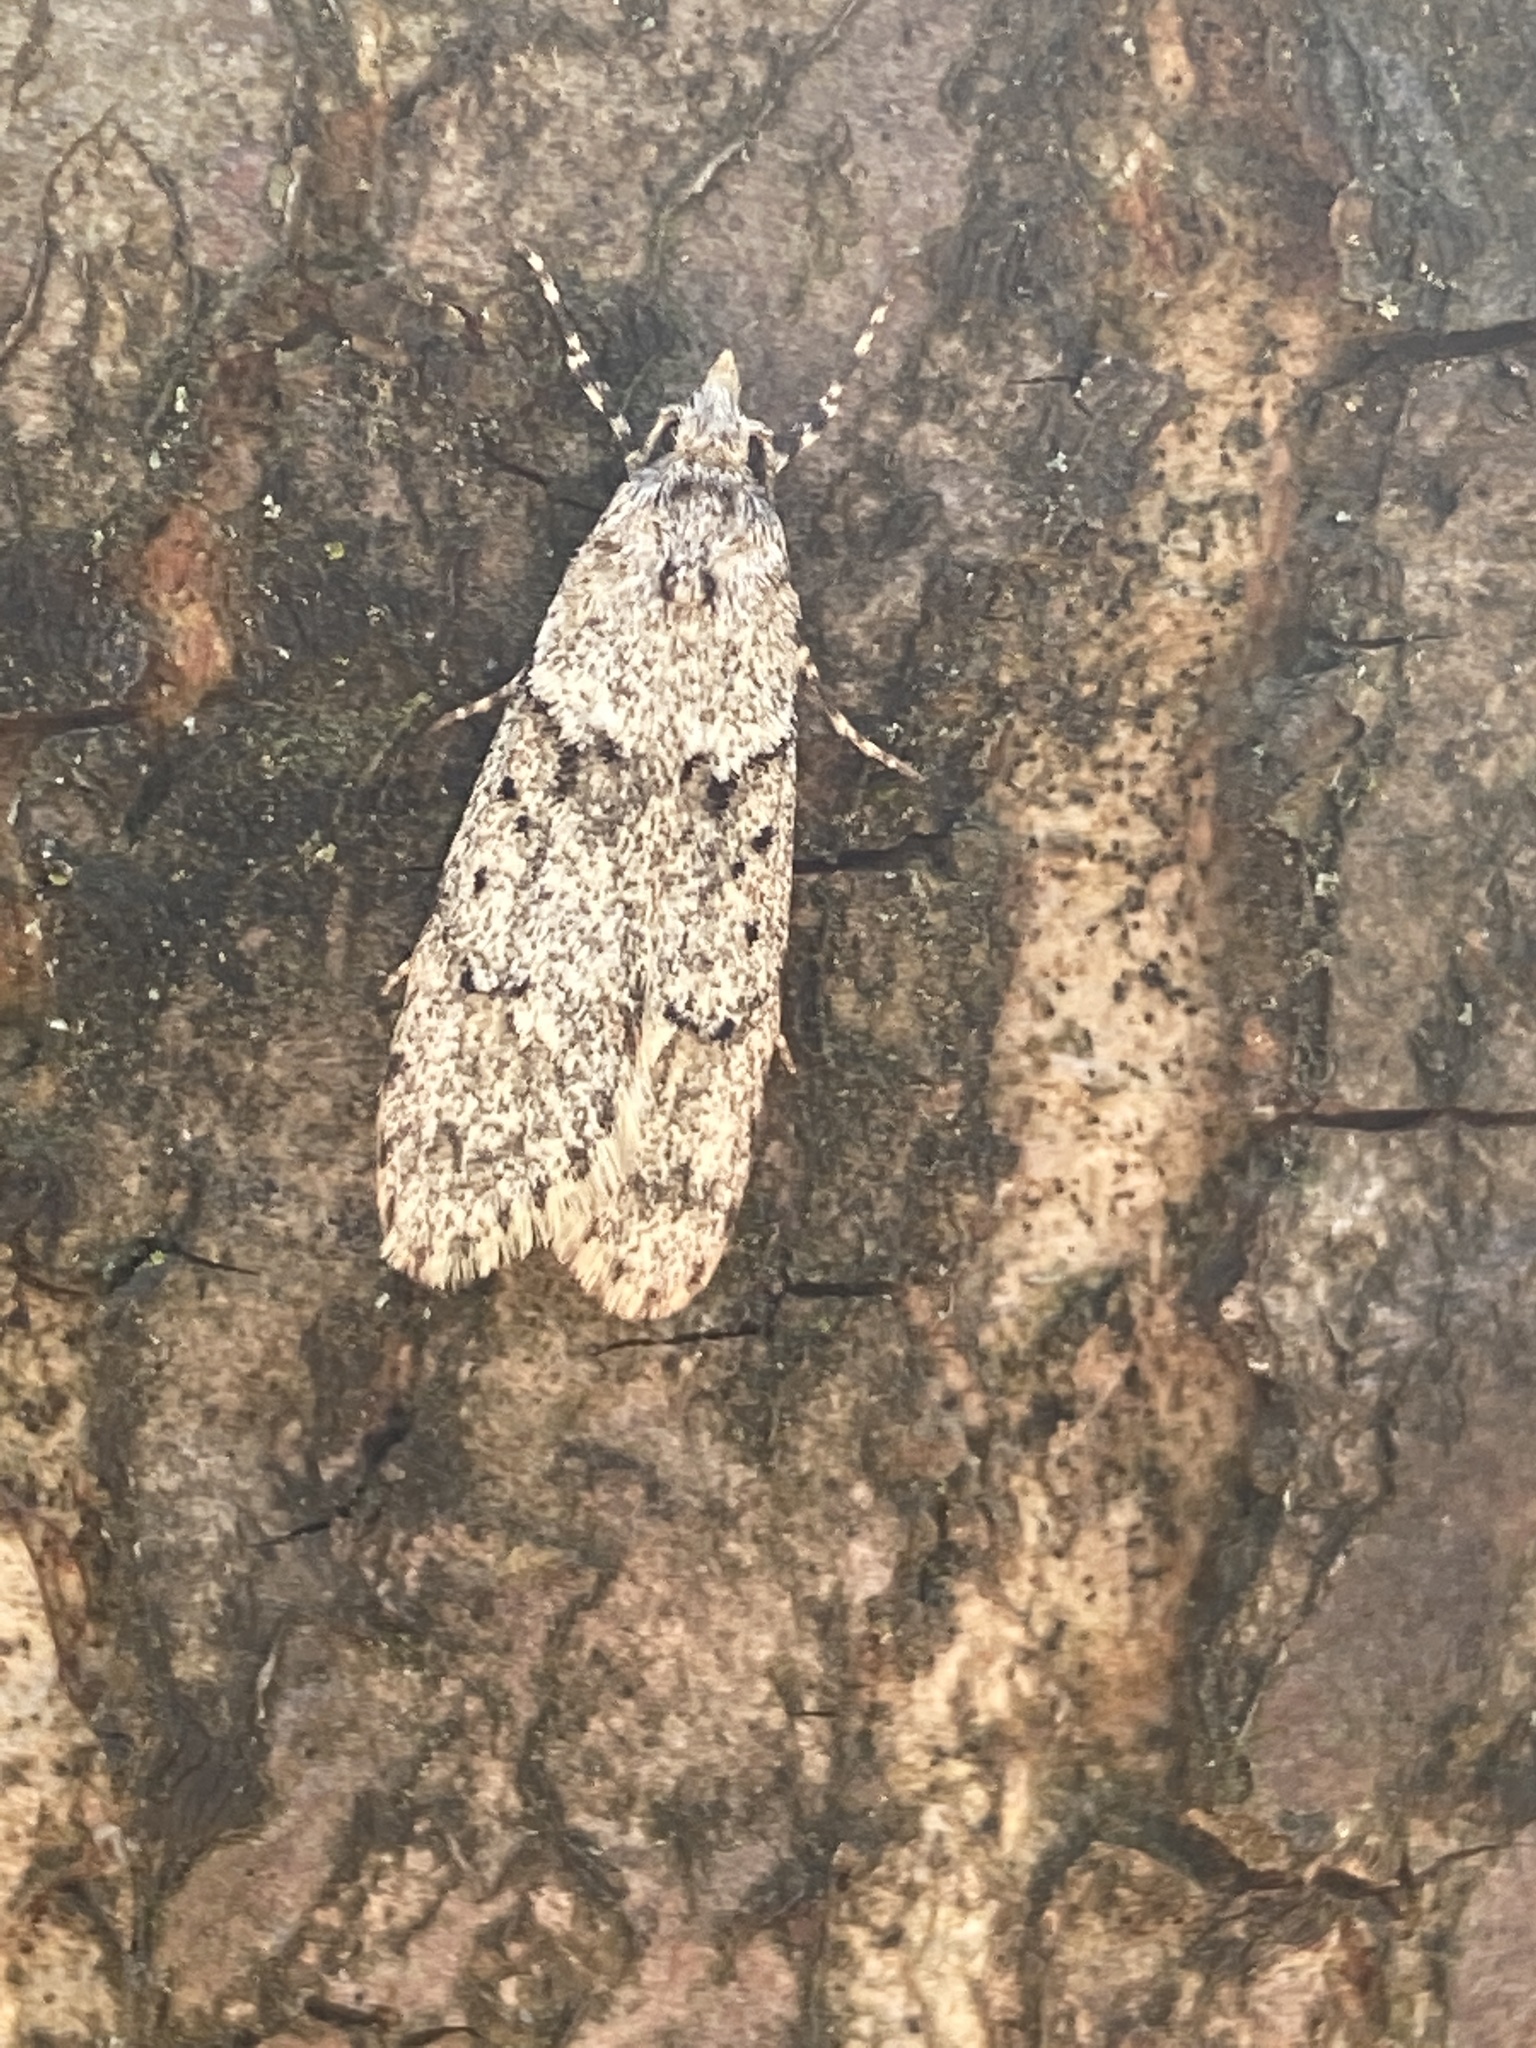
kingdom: Animalia
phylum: Arthropoda
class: Insecta
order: Lepidoptera
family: Lypusidae
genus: Diurnea
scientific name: Diurnea fagella
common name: March tubic
